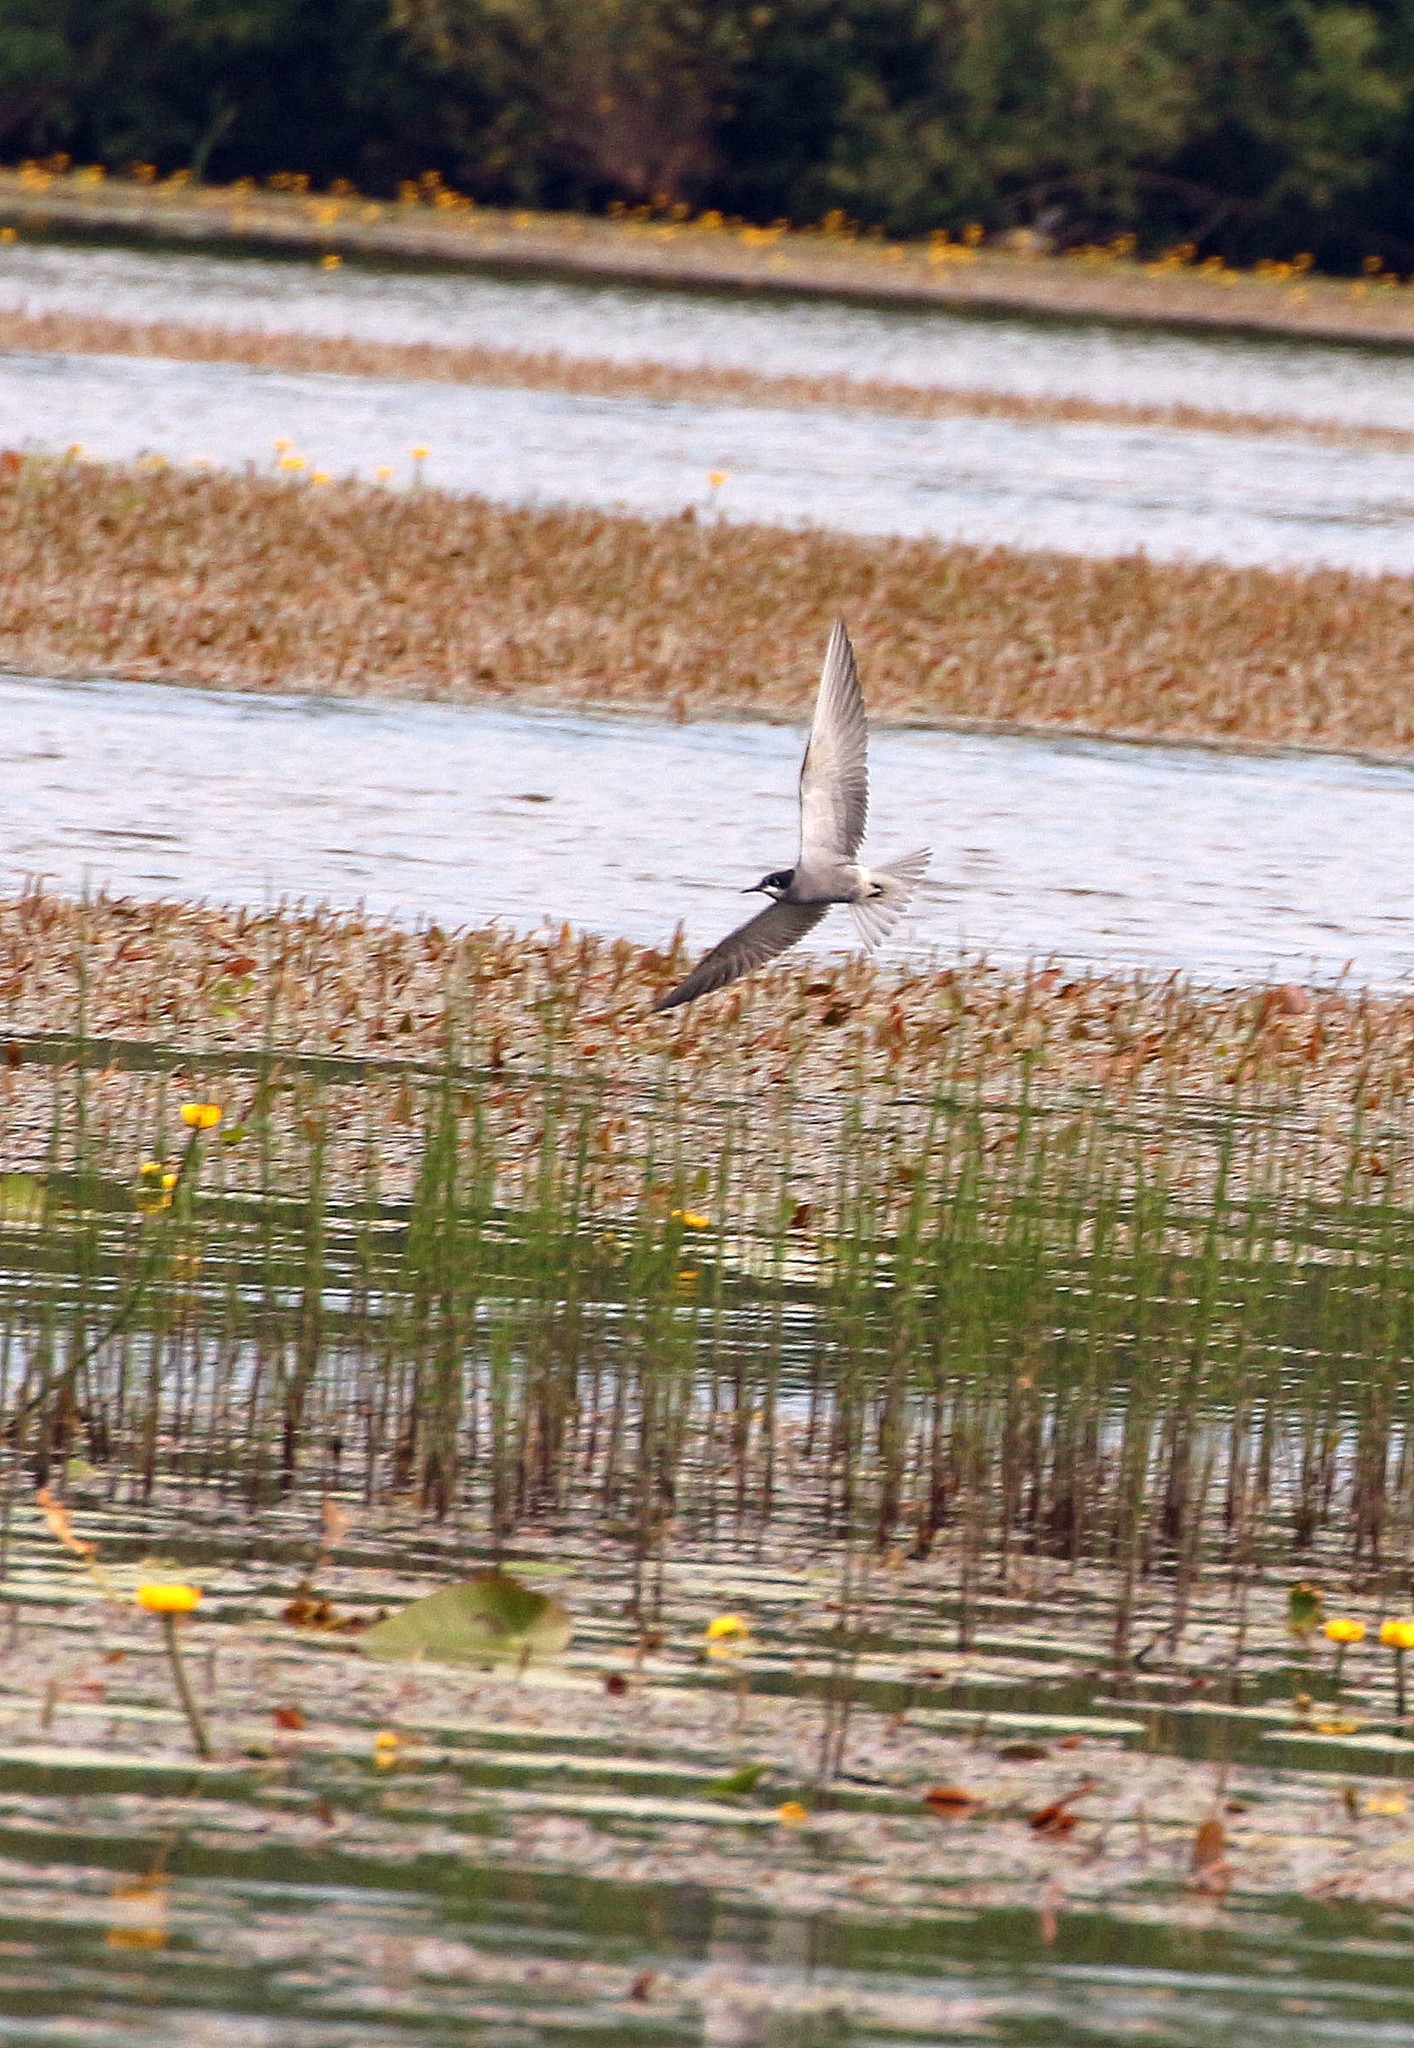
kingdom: Animalia
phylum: Chordata
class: Aves
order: Charadriiformes
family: Laridae
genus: Chlidonias
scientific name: Chlidonias niger
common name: Black tern
